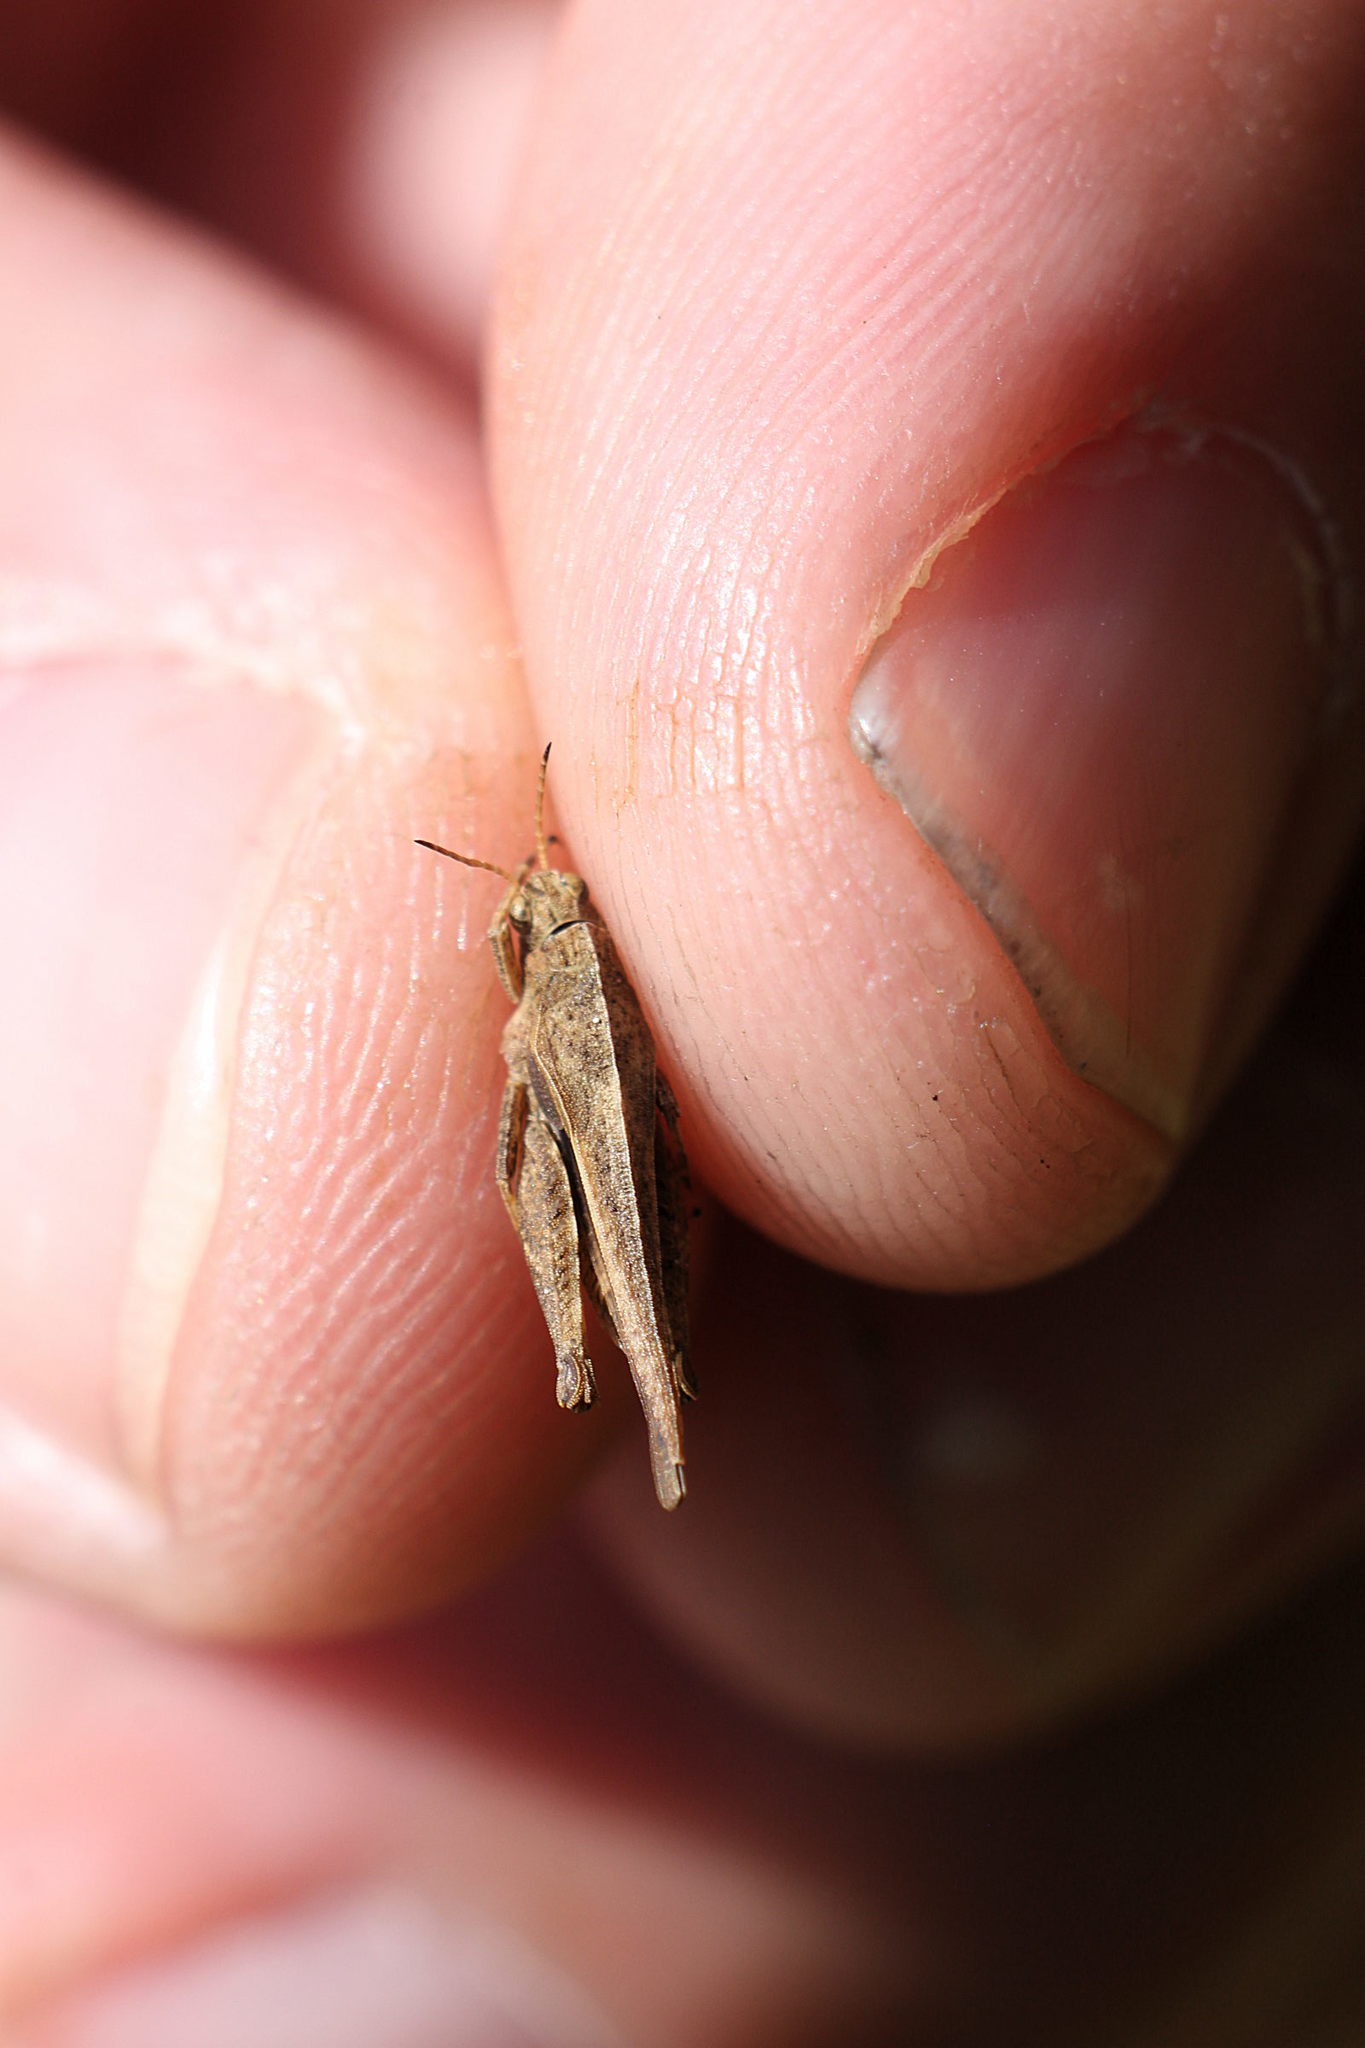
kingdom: Animalia
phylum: Arthropoda
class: Insecta
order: Orthoptera
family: Tetrigidae
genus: Tetrix
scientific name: Tetrix subulata
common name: Slender ground-hopper
